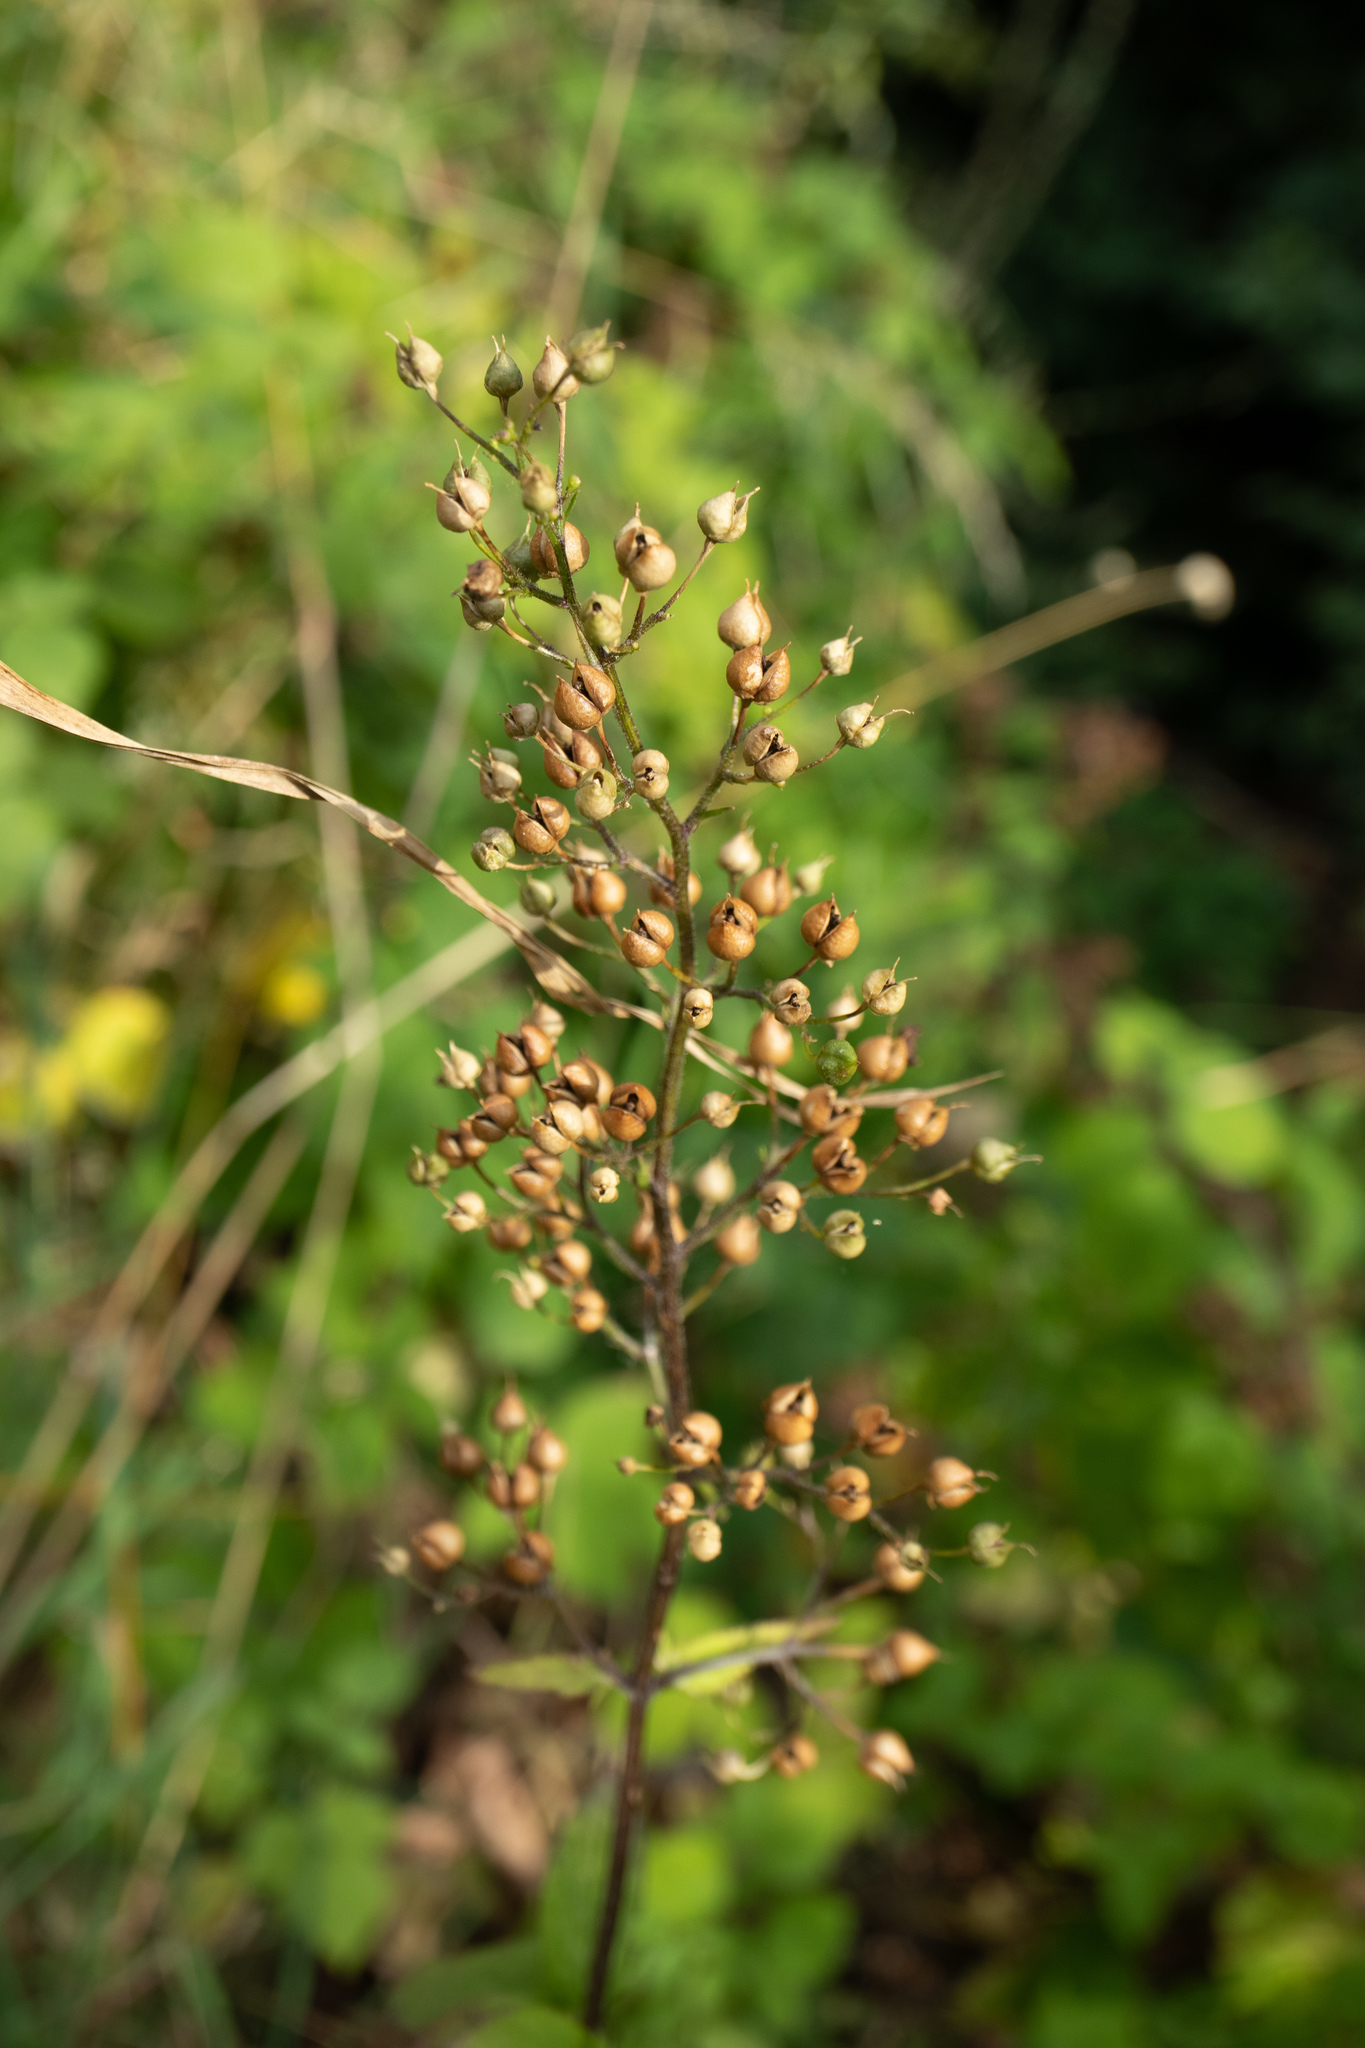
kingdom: Plantae
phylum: Tracheophyta
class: Magnoliopsida
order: Lamiales
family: Scrophulariaceae
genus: Scrophularia
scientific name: Scrophularia nodosa
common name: Common figwort
